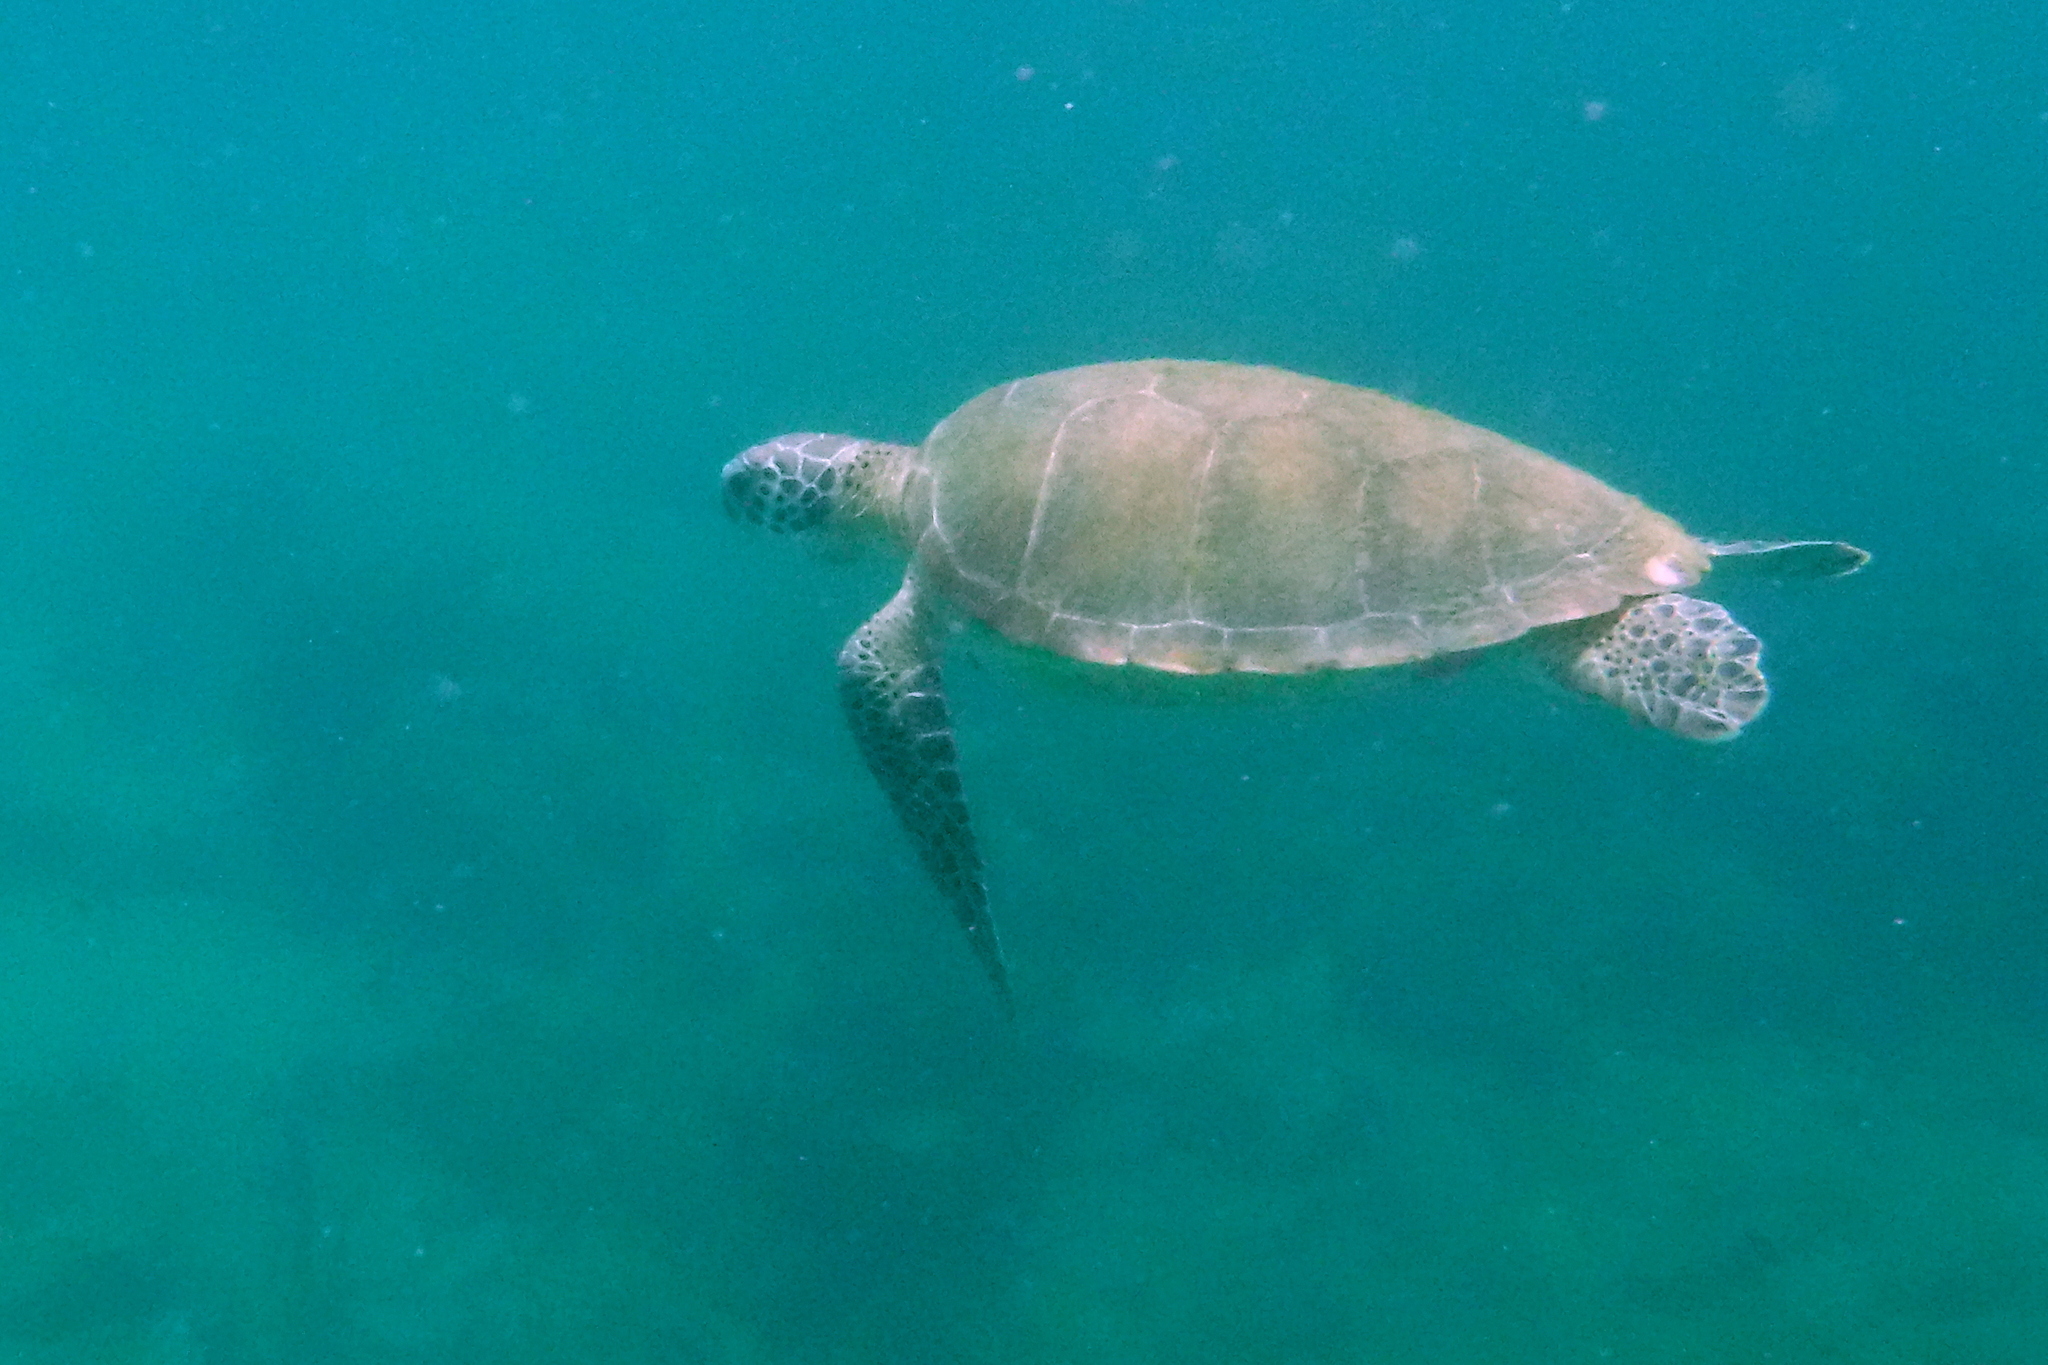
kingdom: Animalia
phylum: Chordata
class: Testudines
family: Cheloniidae
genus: Chelonia
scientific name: Chelonia mydas
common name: Green turtle
